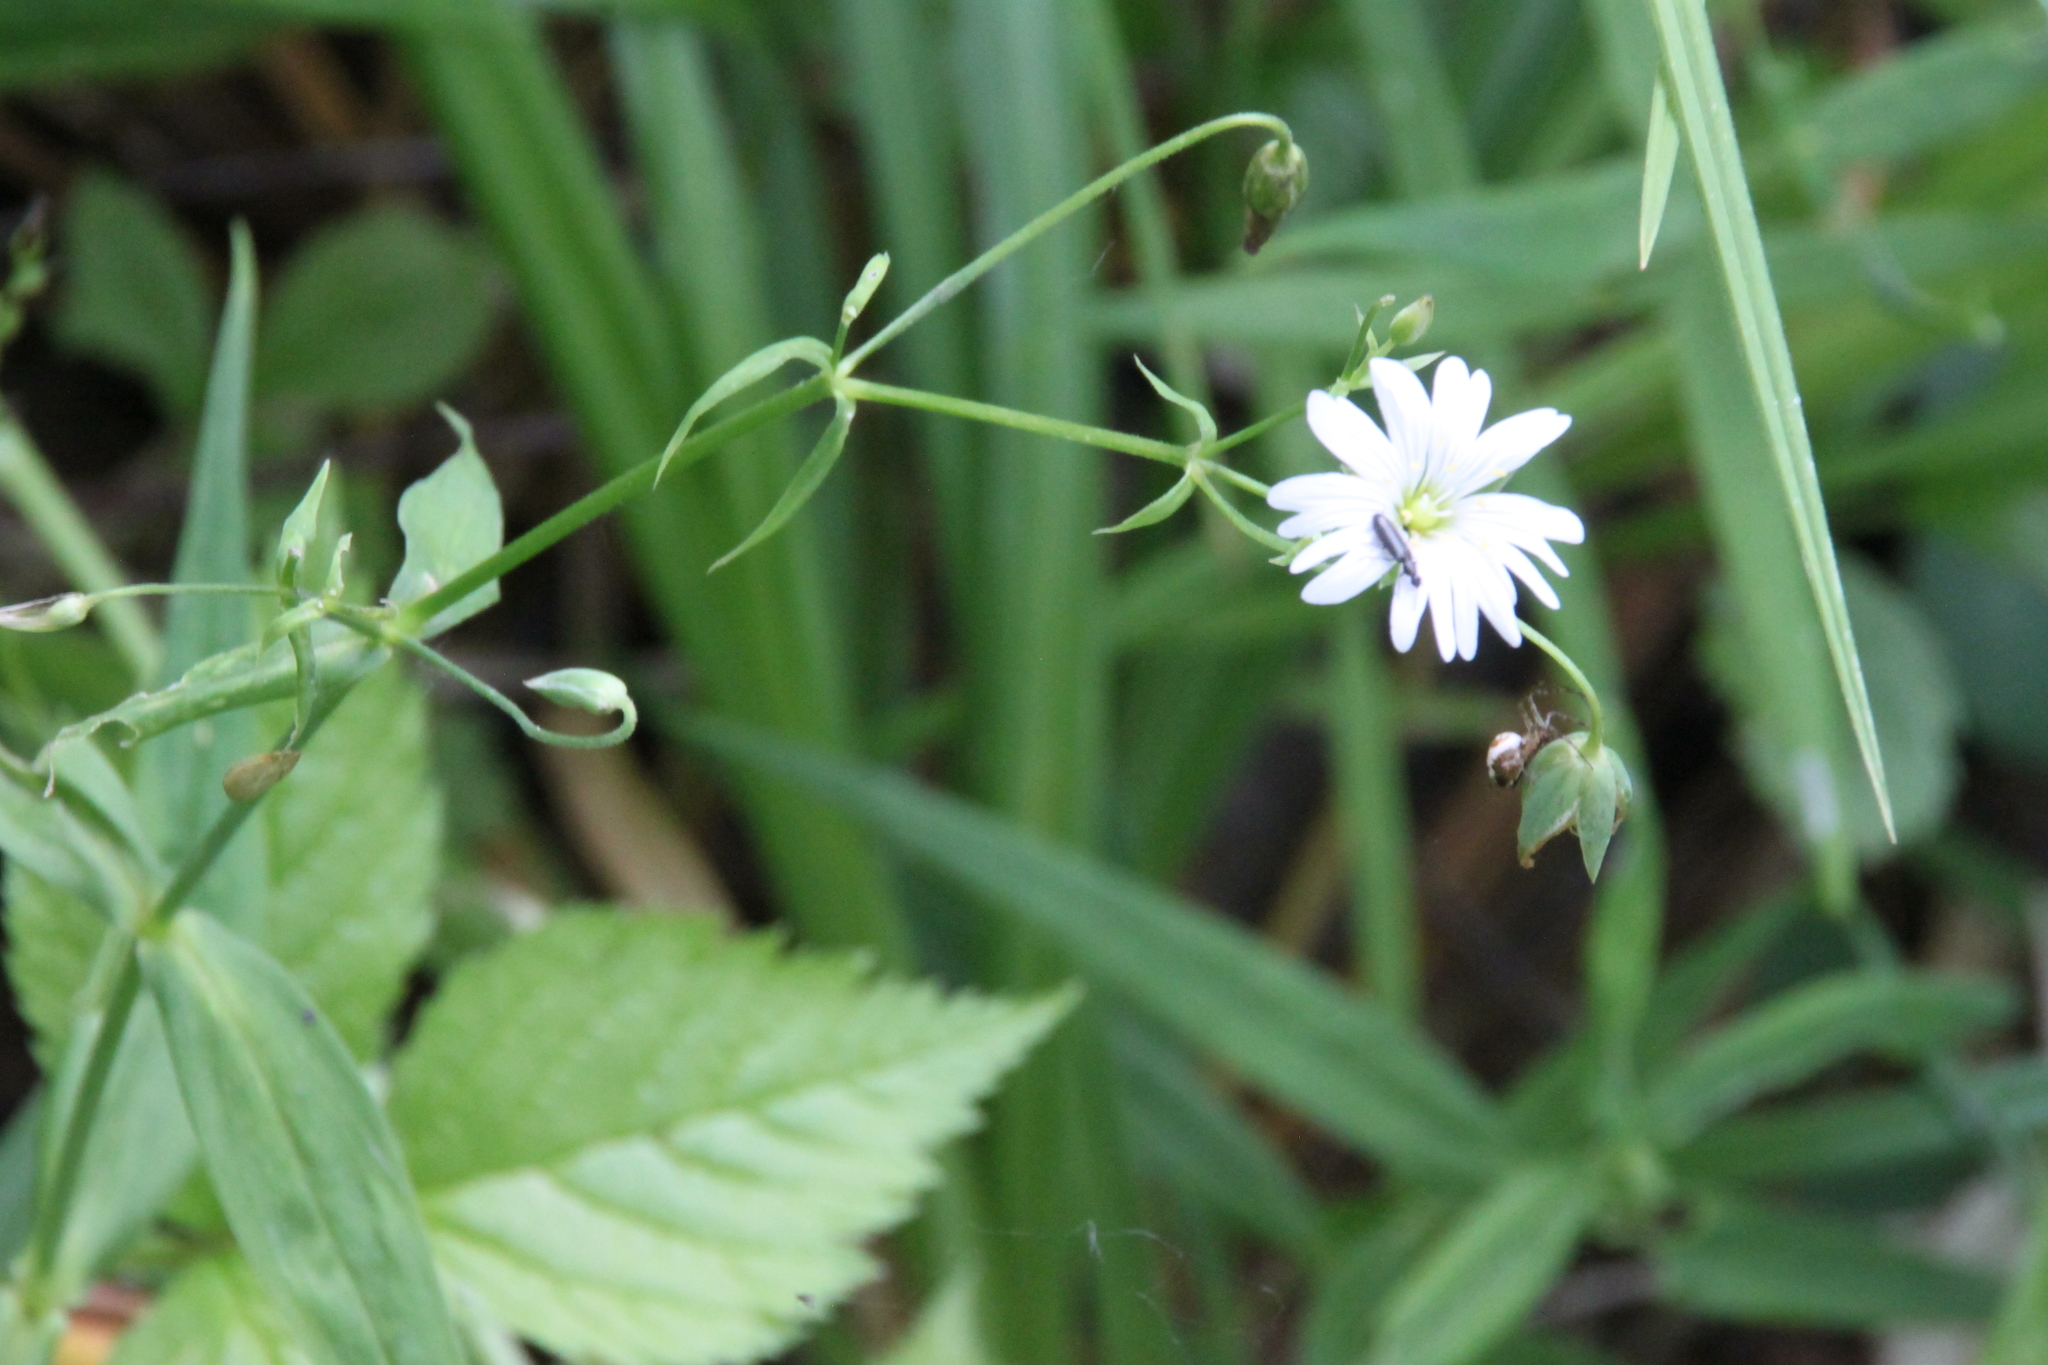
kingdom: Plantae
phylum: Tracheophyta
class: Magnoliopsida
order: Caryophyllales
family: Caryophyllaceae
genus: Rabelera
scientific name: Rabelera holostea
